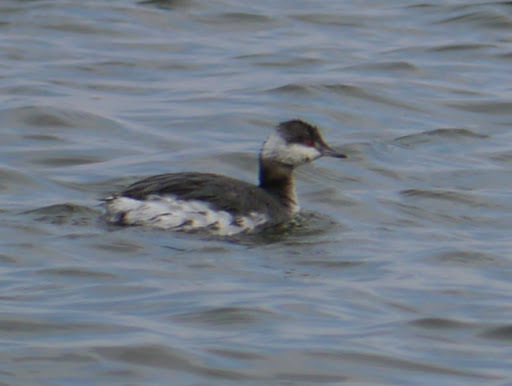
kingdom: Animalia
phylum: Chordata
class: Aves
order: Podicipediformes
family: Podicipedidae
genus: Podiceps
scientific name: Podiceps auritus
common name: Horned grebe
